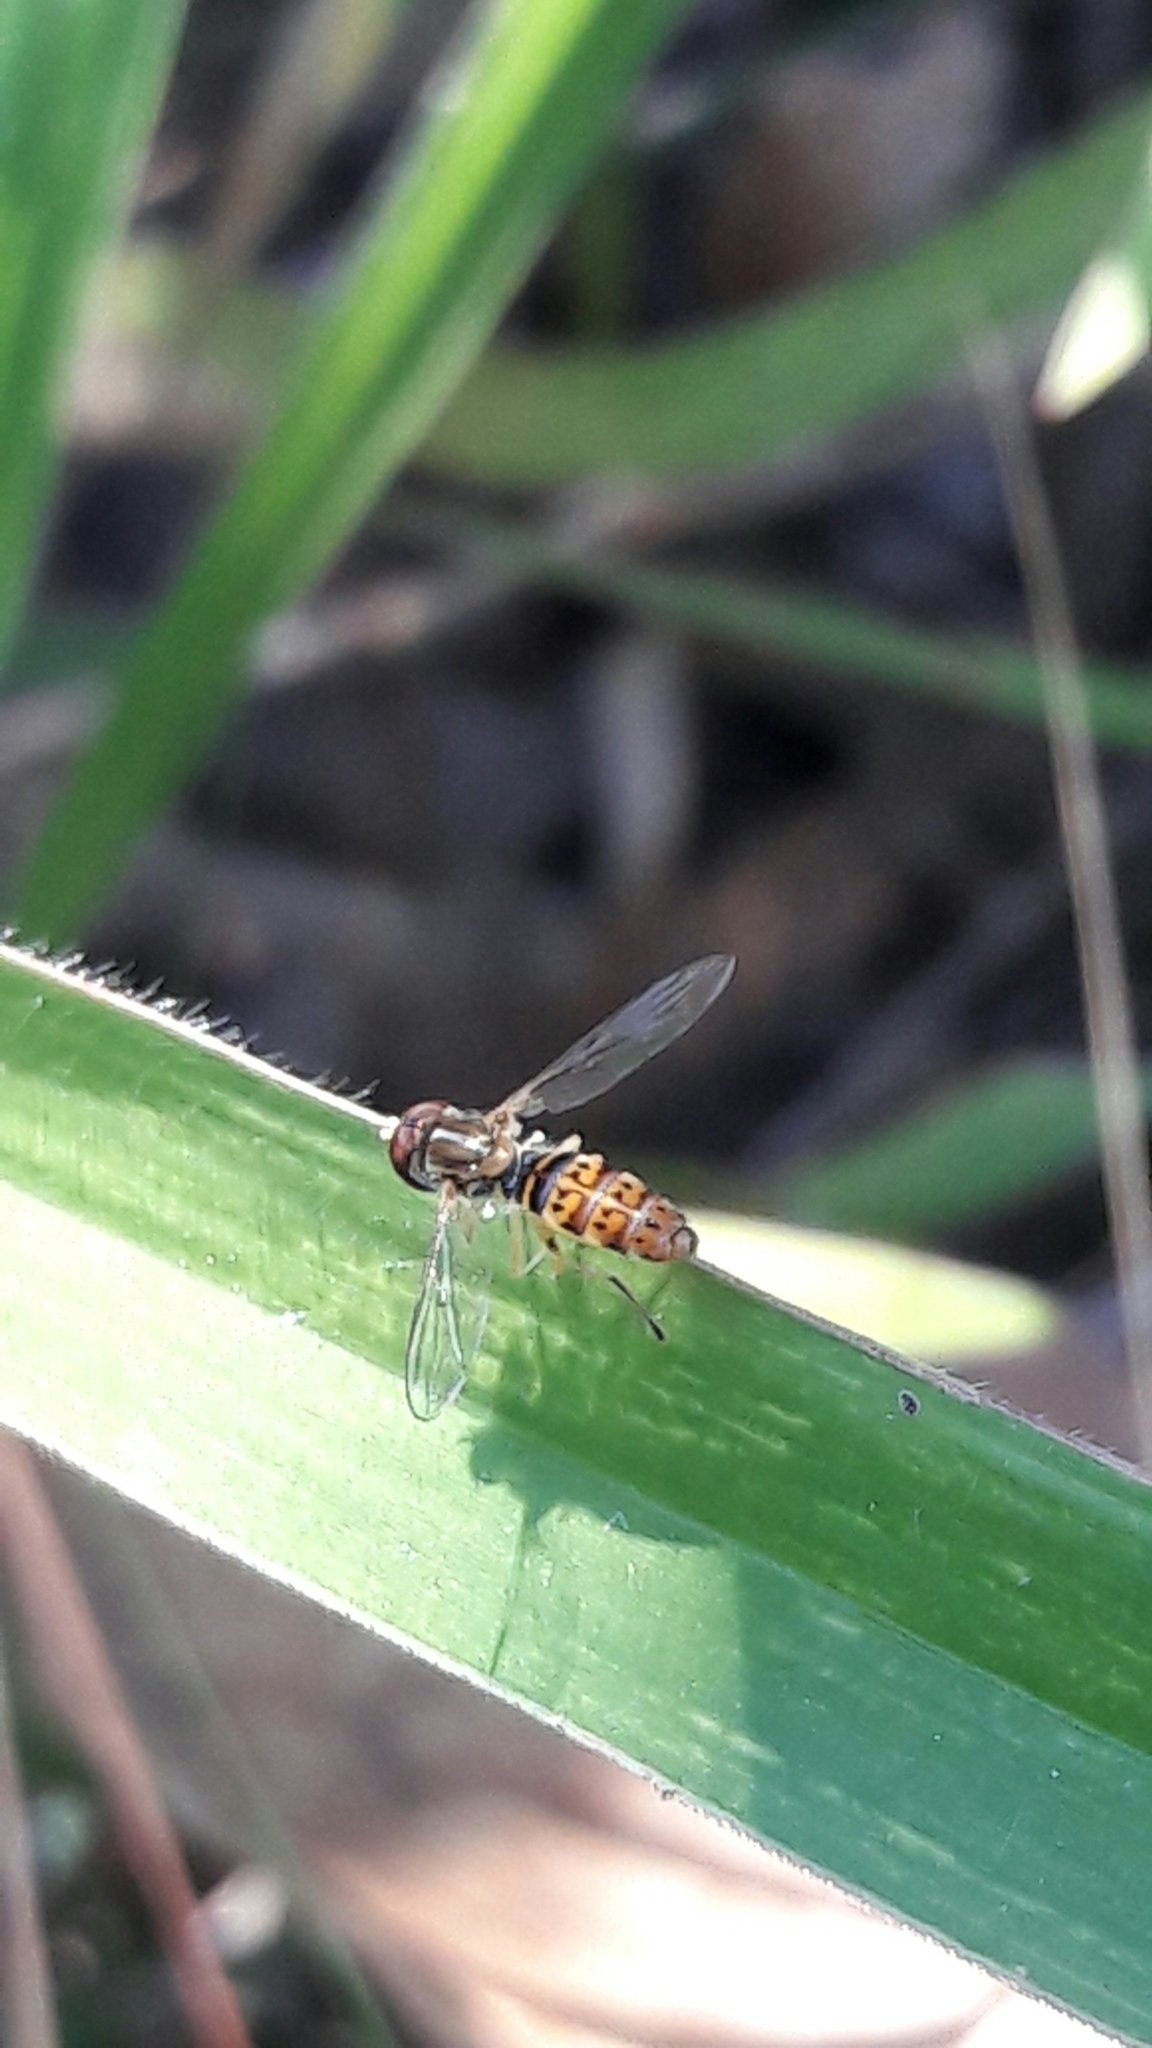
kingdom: Animalia
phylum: Arthropoda
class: Insecta
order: Diptera
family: Syrphidae
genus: Toxomerus
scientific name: Toxomerus
